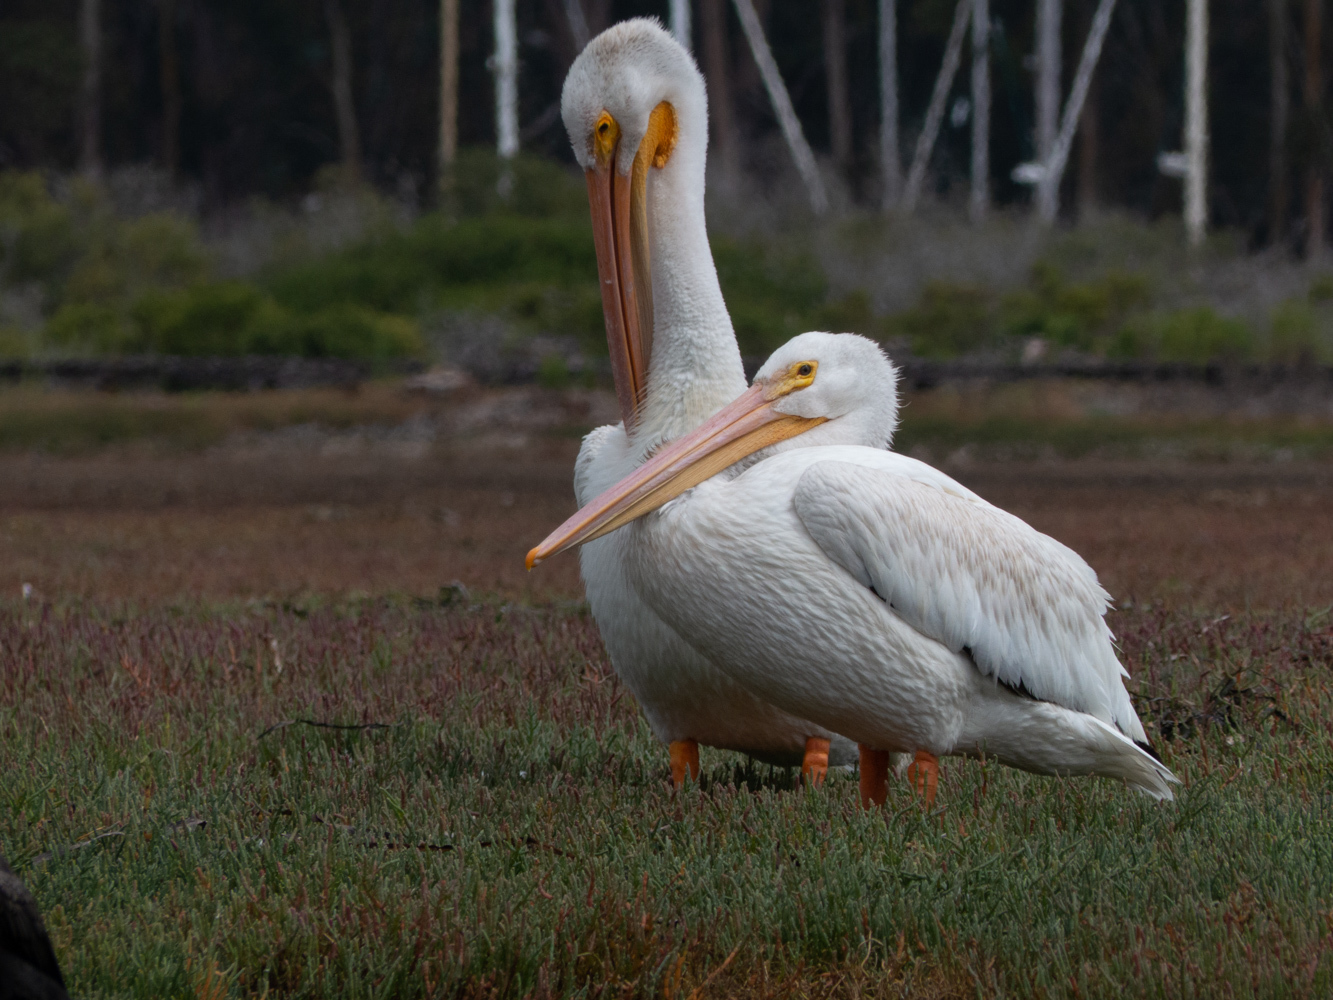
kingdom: Animalia
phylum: Chordata
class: Aves
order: Pelecaniformes
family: Pelecanidae
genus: Pelecanus
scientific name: Pelecanus erythrorhynchos
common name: American white pelican
